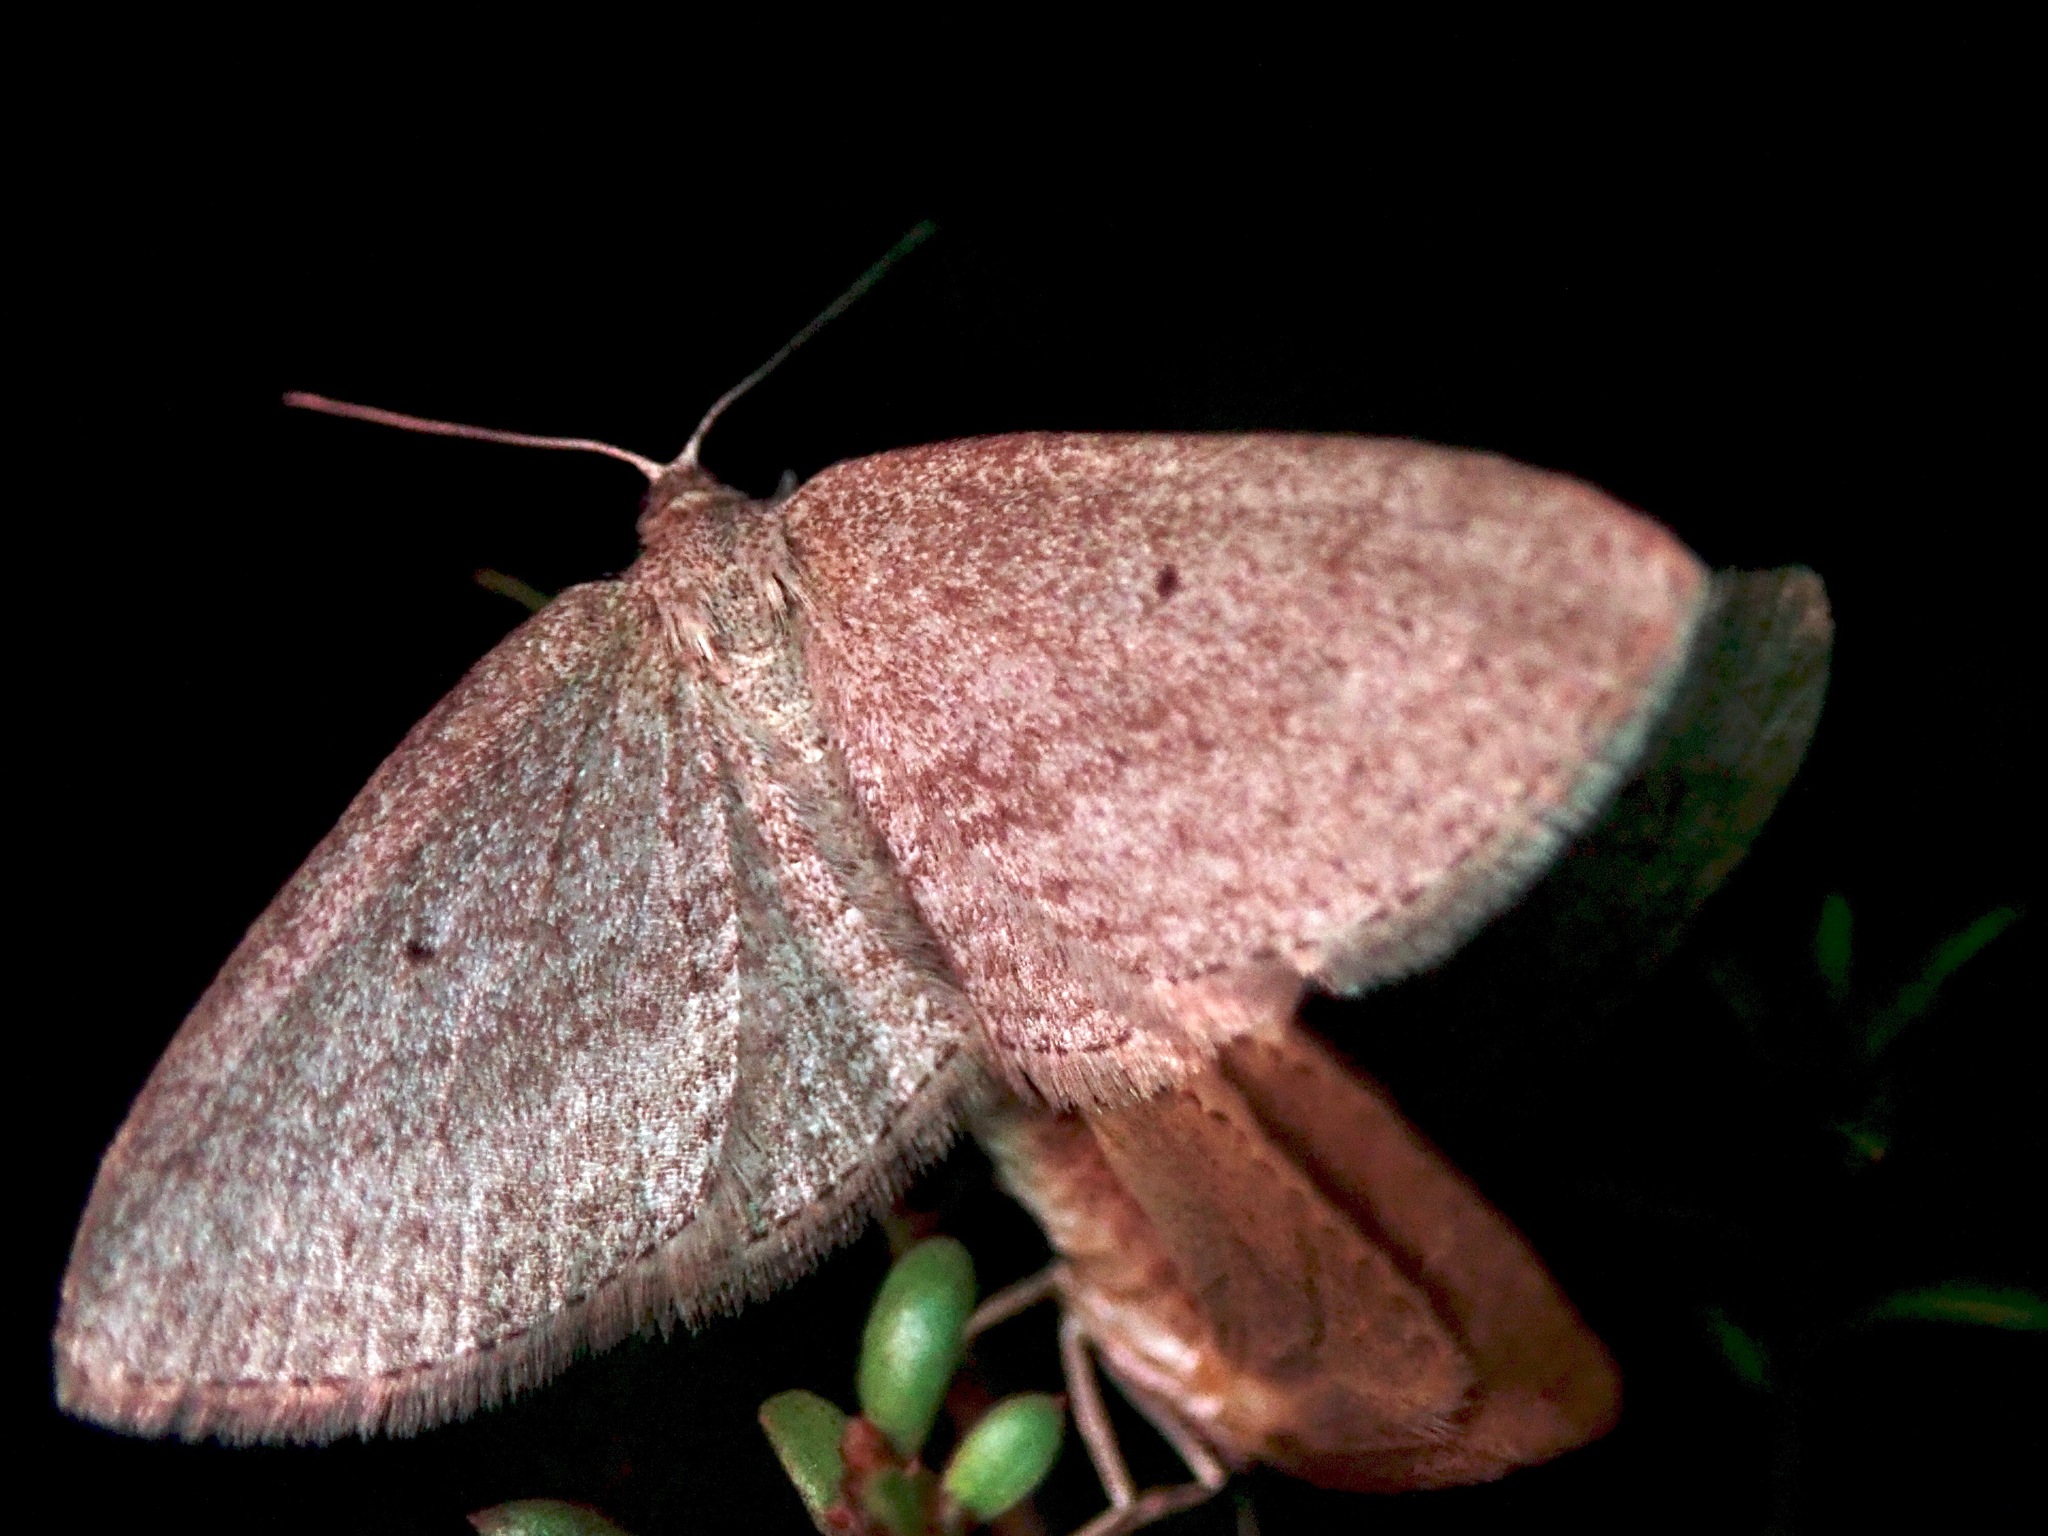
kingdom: Animalia
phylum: Arthropoda
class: Insecta
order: Lepidoptera
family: Geometridae
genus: Poecilasthena
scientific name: Poecilasthena schistaria
